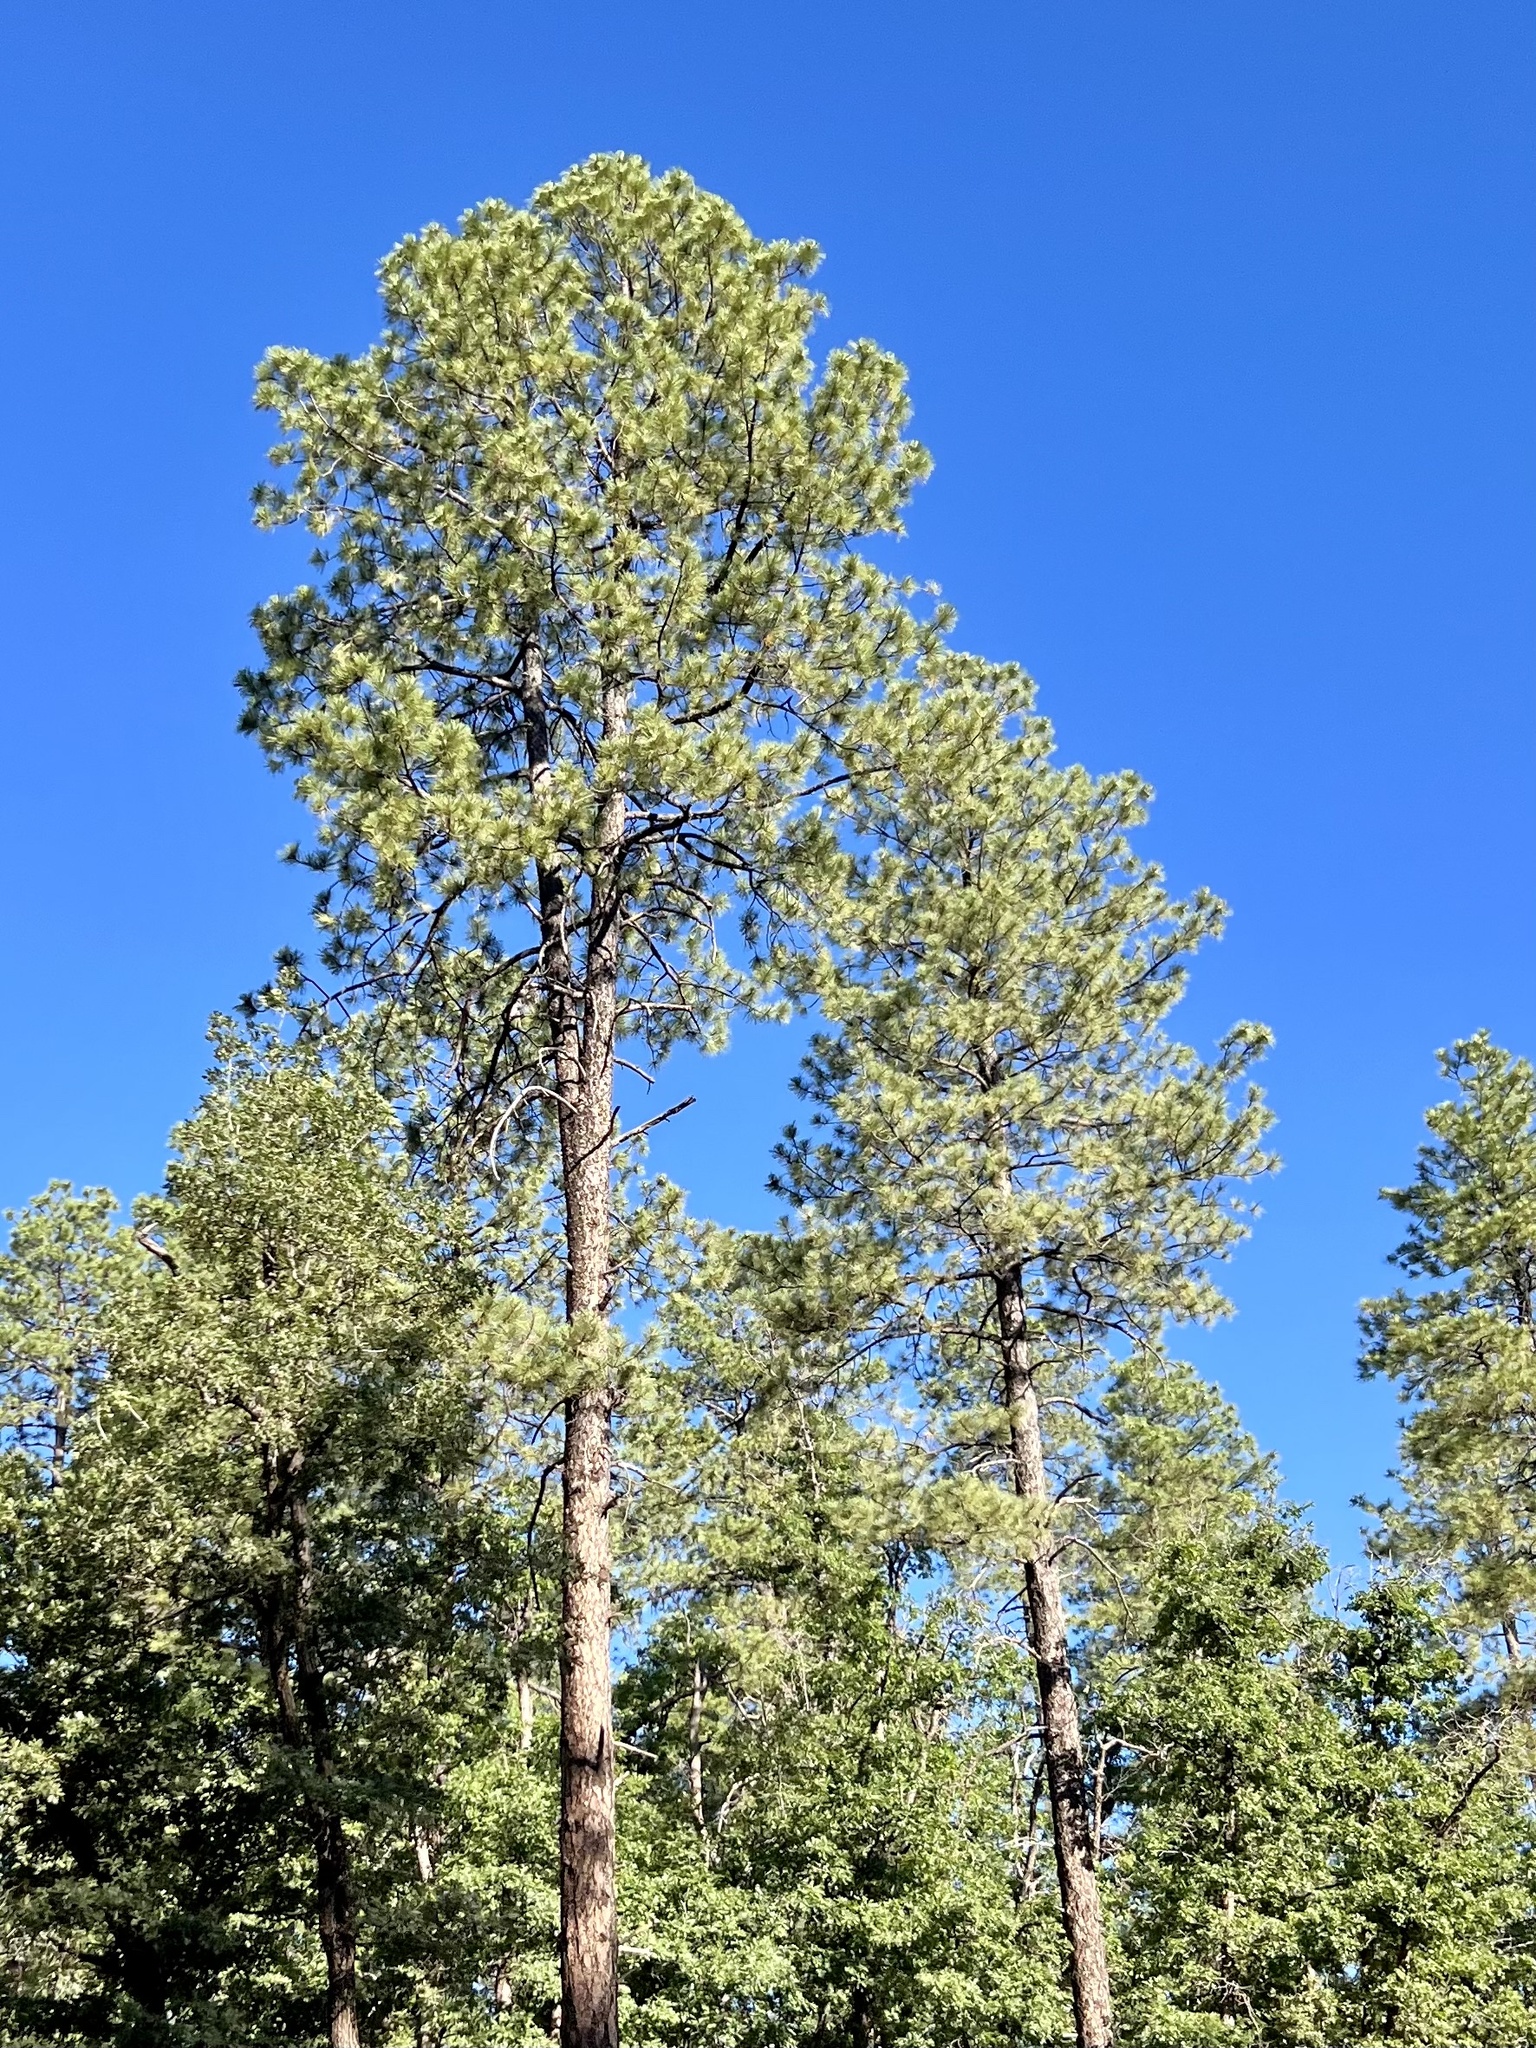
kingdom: Plantae
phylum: Tracheophyta
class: Pinopsida
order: Pinales
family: Pinaceae
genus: Pinus
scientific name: Pinus ponderosa
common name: Western yellow-pine
